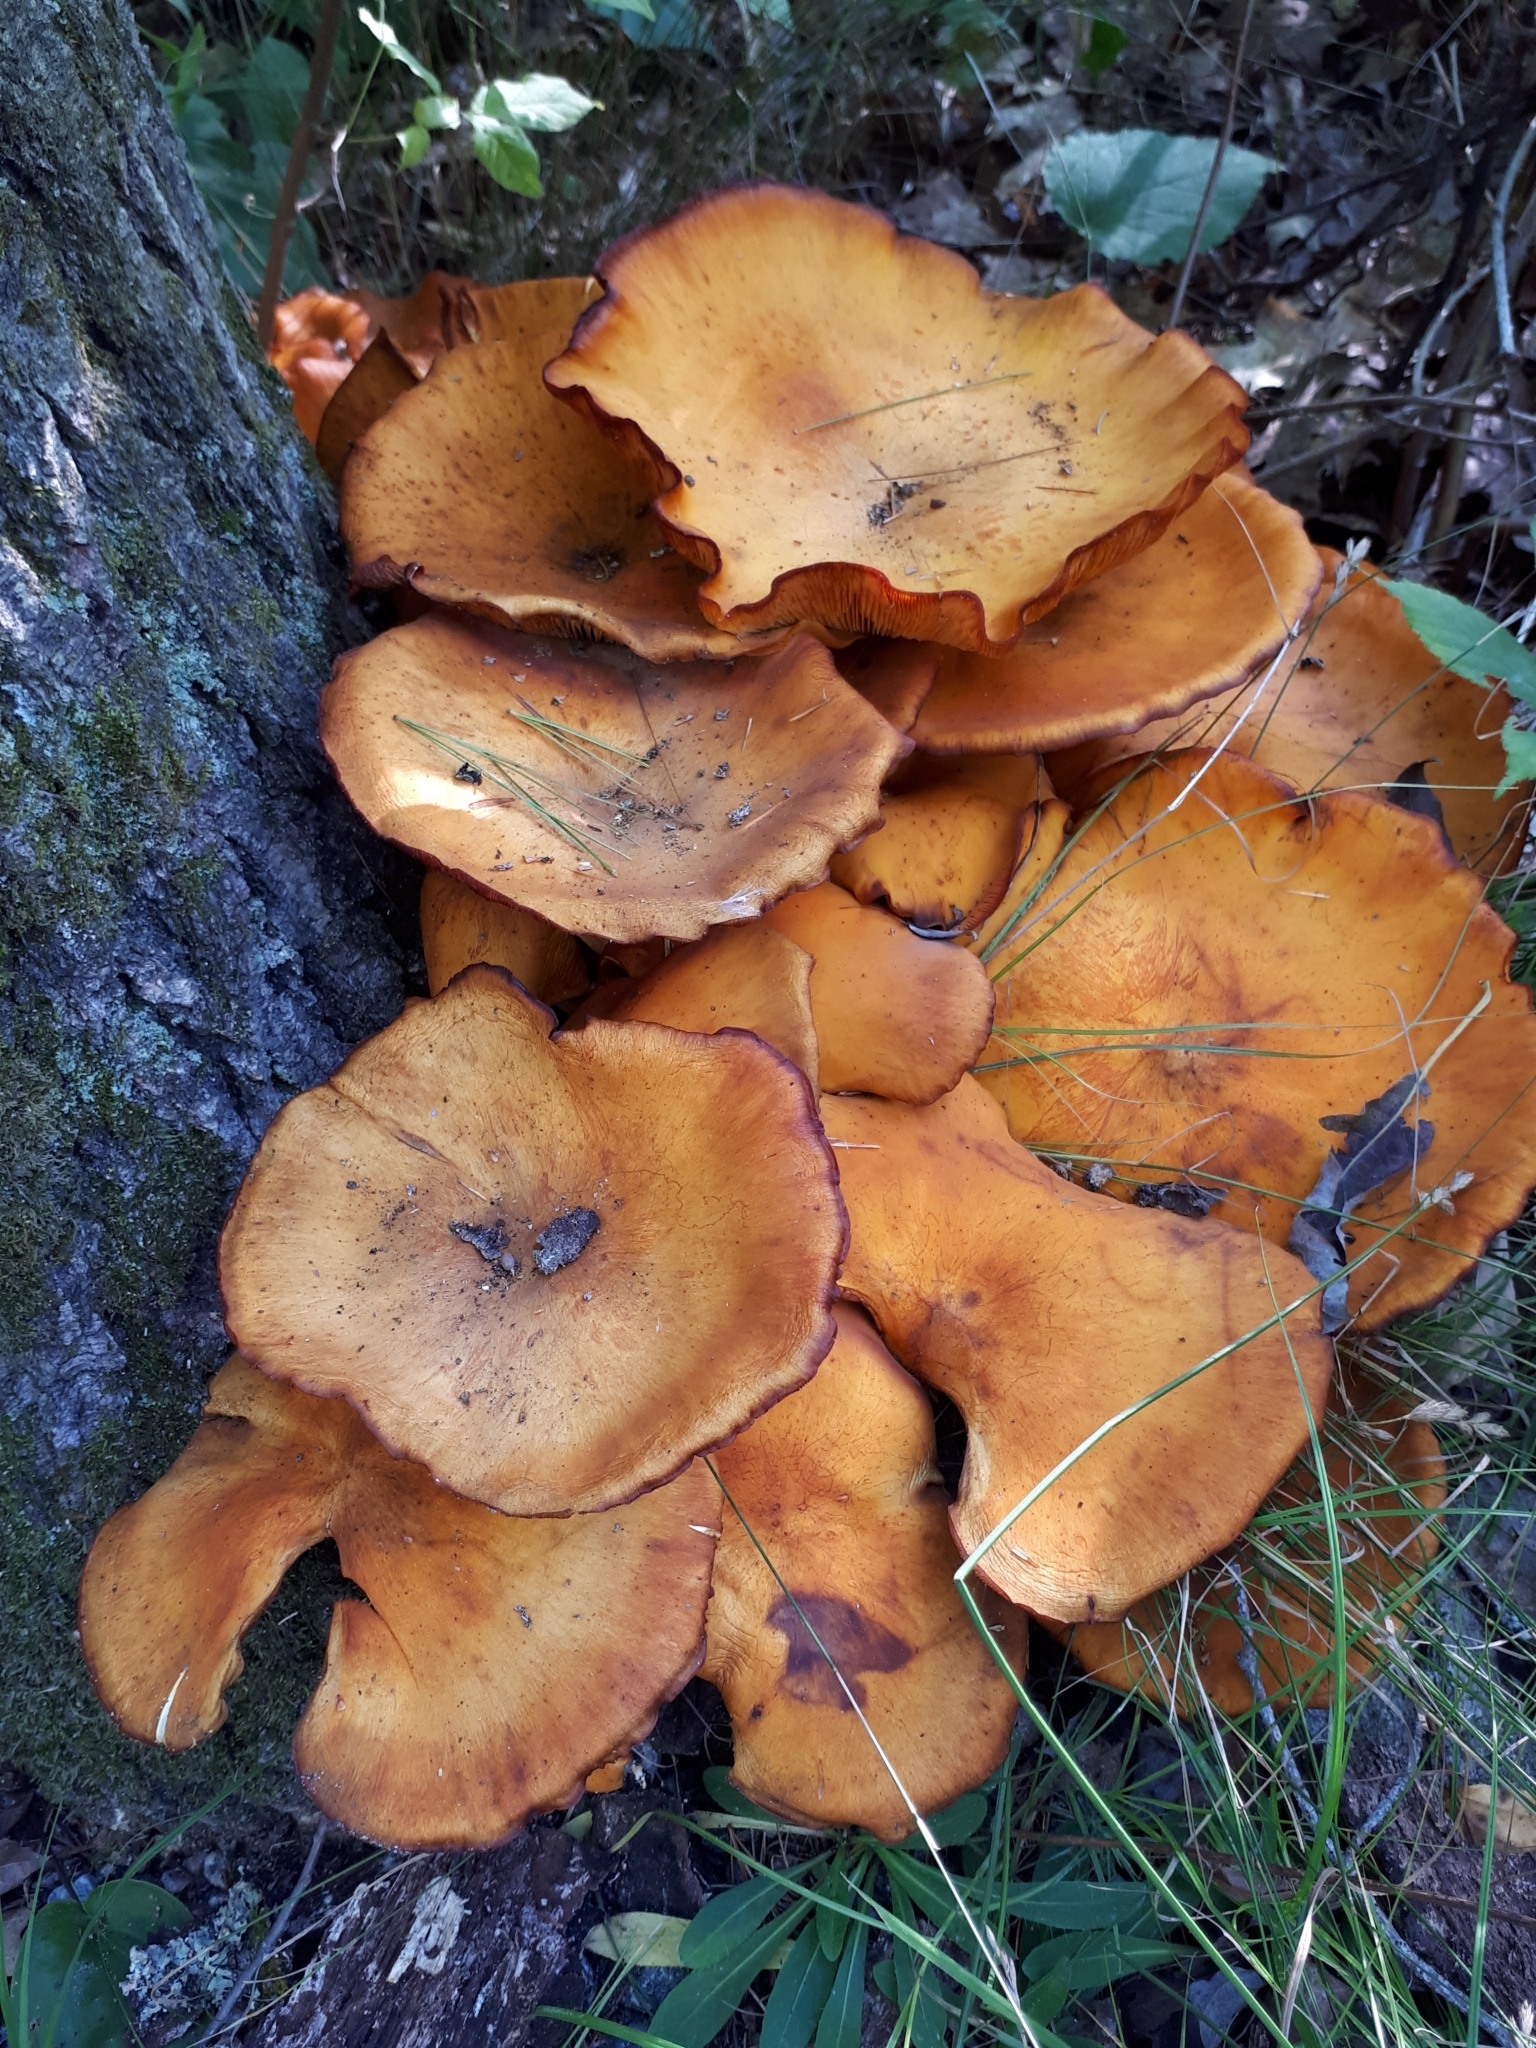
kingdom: Fungi
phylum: Basidiomycota
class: Agaricomycetes
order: Agaricales
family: Omphalotaceae
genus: Omphalotus
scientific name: Omphalotus illudens
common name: Jack o lantern
